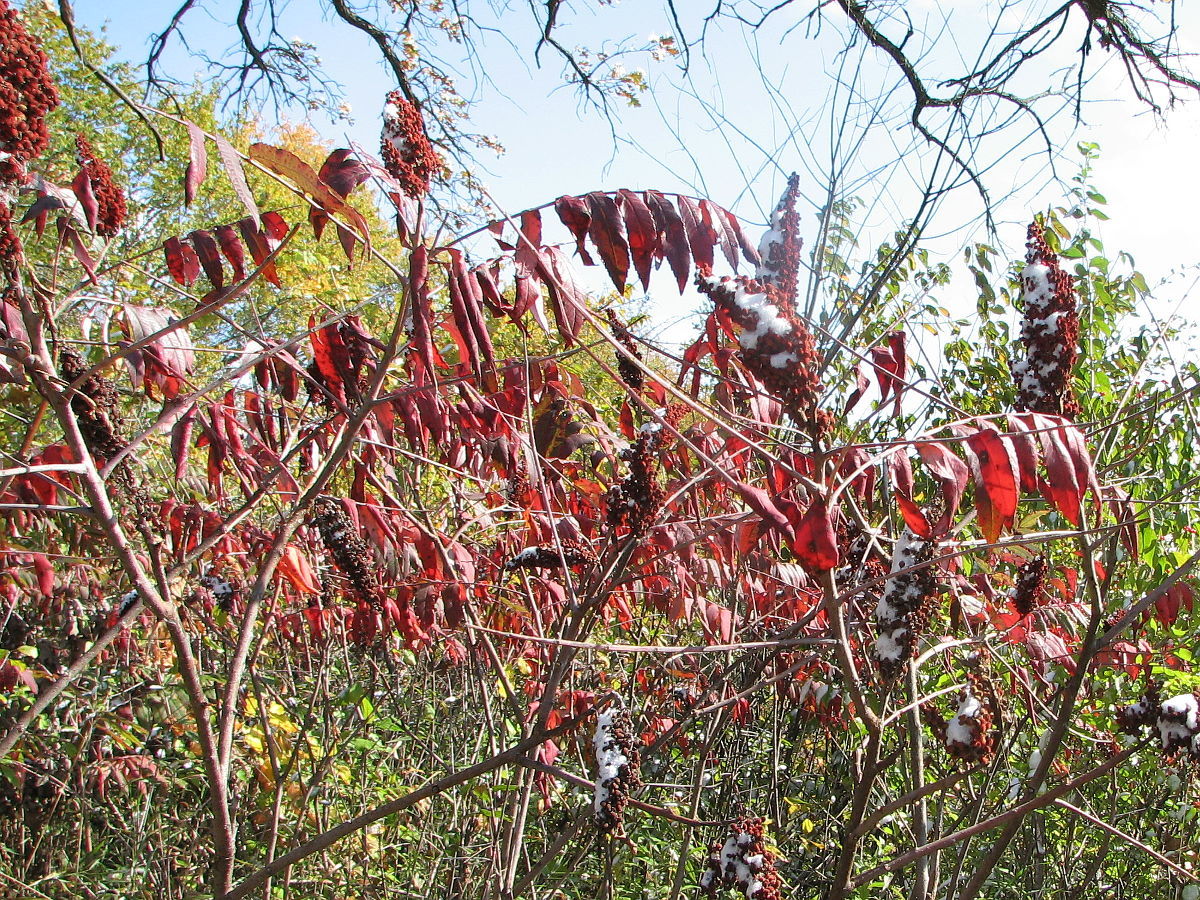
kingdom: Plantae
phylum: Tracheophyta
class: Magnoliopsida
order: Sapindales
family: Anacardiaceae
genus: Rhus
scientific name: Rhus glabra
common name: Scarlet sumac
